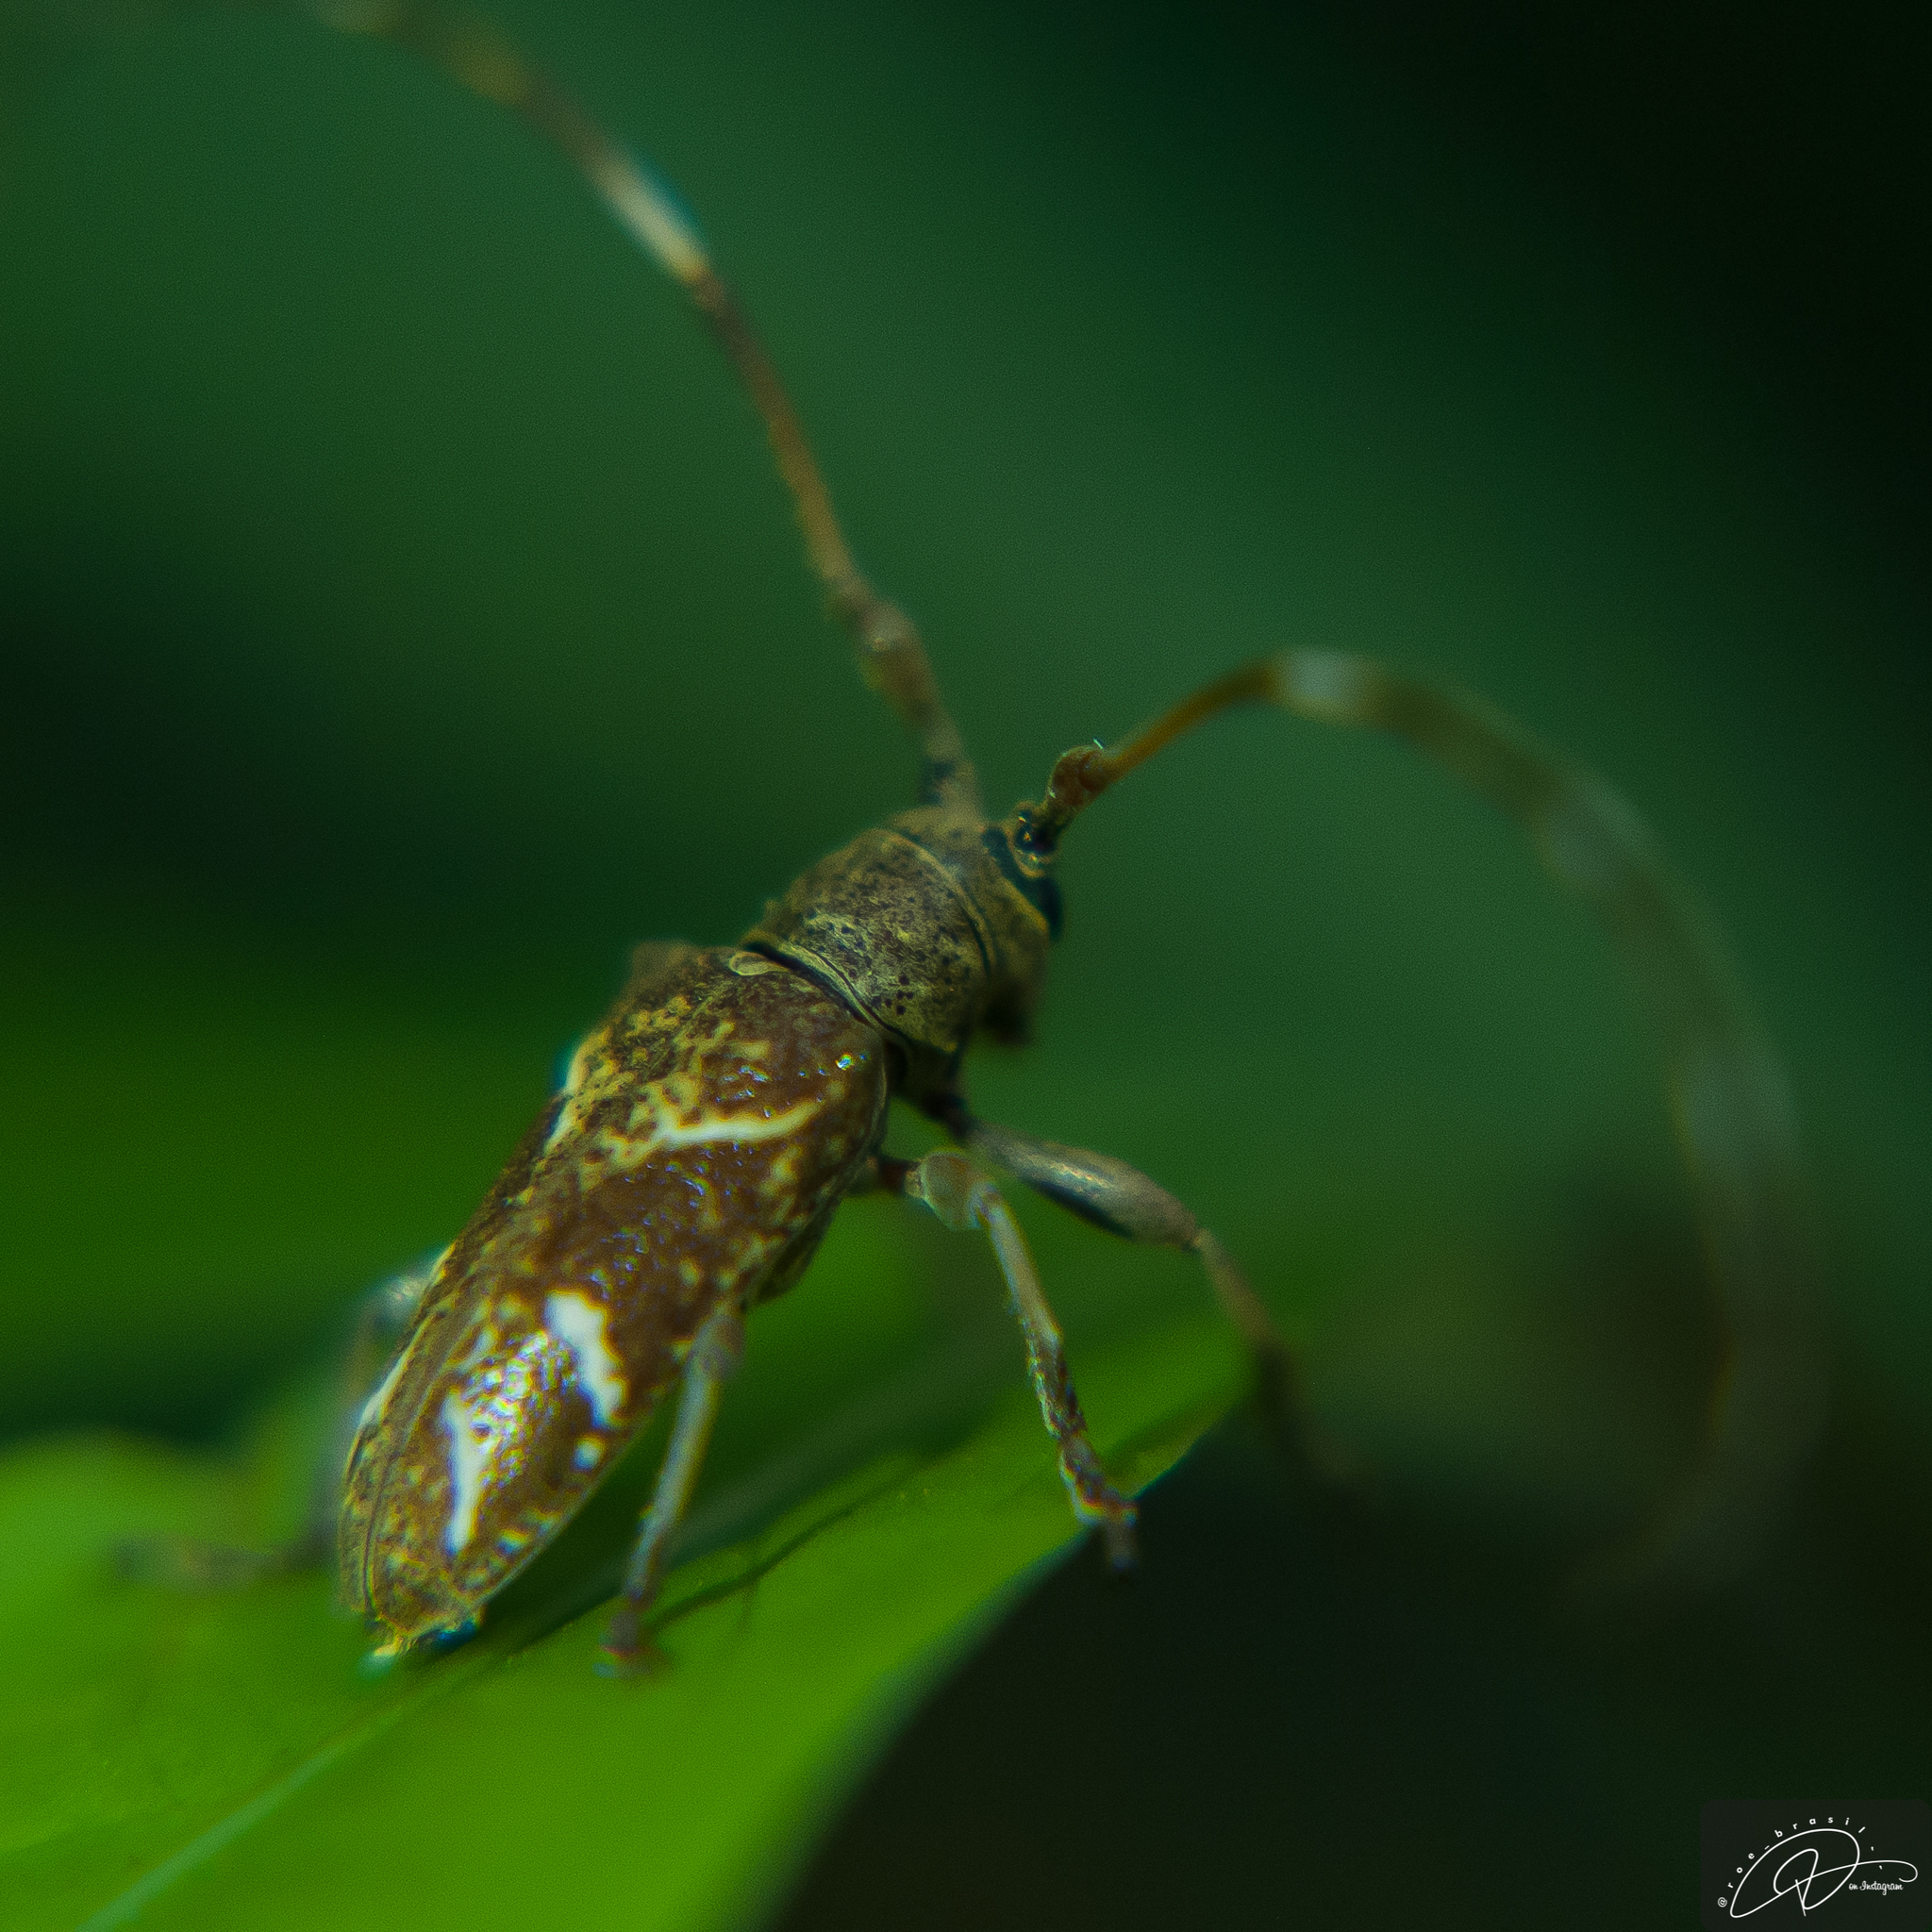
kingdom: Animalia
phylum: Arthropoda
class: Insecta
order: Coleoptera
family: Cerambycidae
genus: Apamauta
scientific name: Apamauta lineolata
